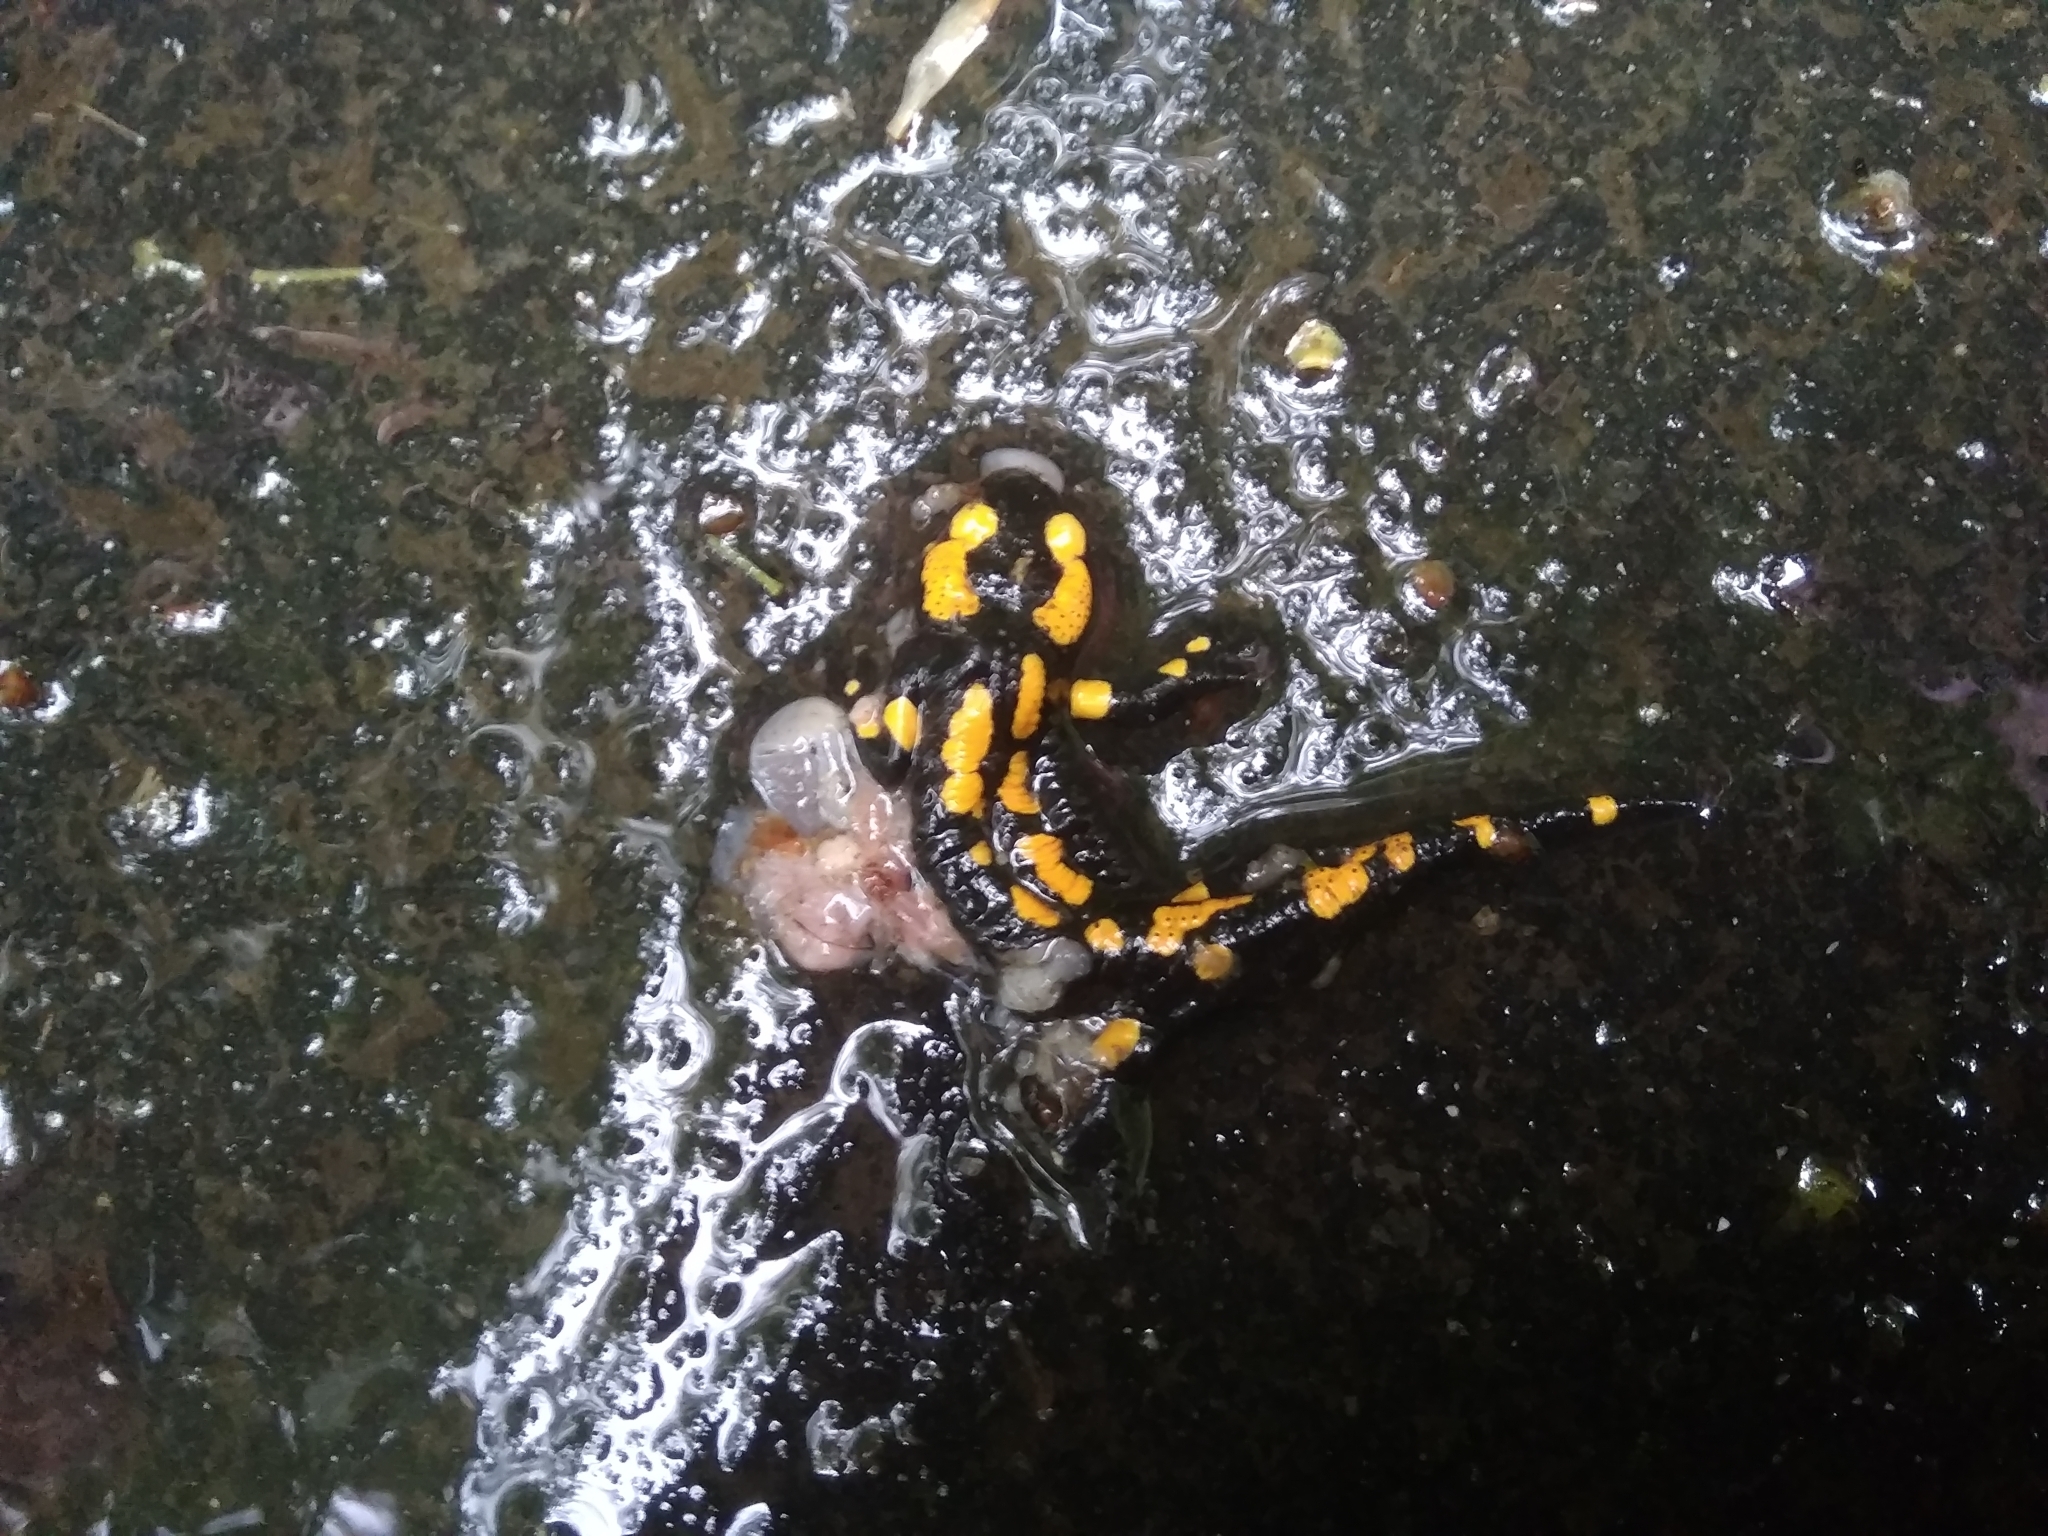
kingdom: Animalia
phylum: Chordata
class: Amphibia
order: Caudata
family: Salamandridae
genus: Salamandra
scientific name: Salamandra salamandra
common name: Fire salamander
